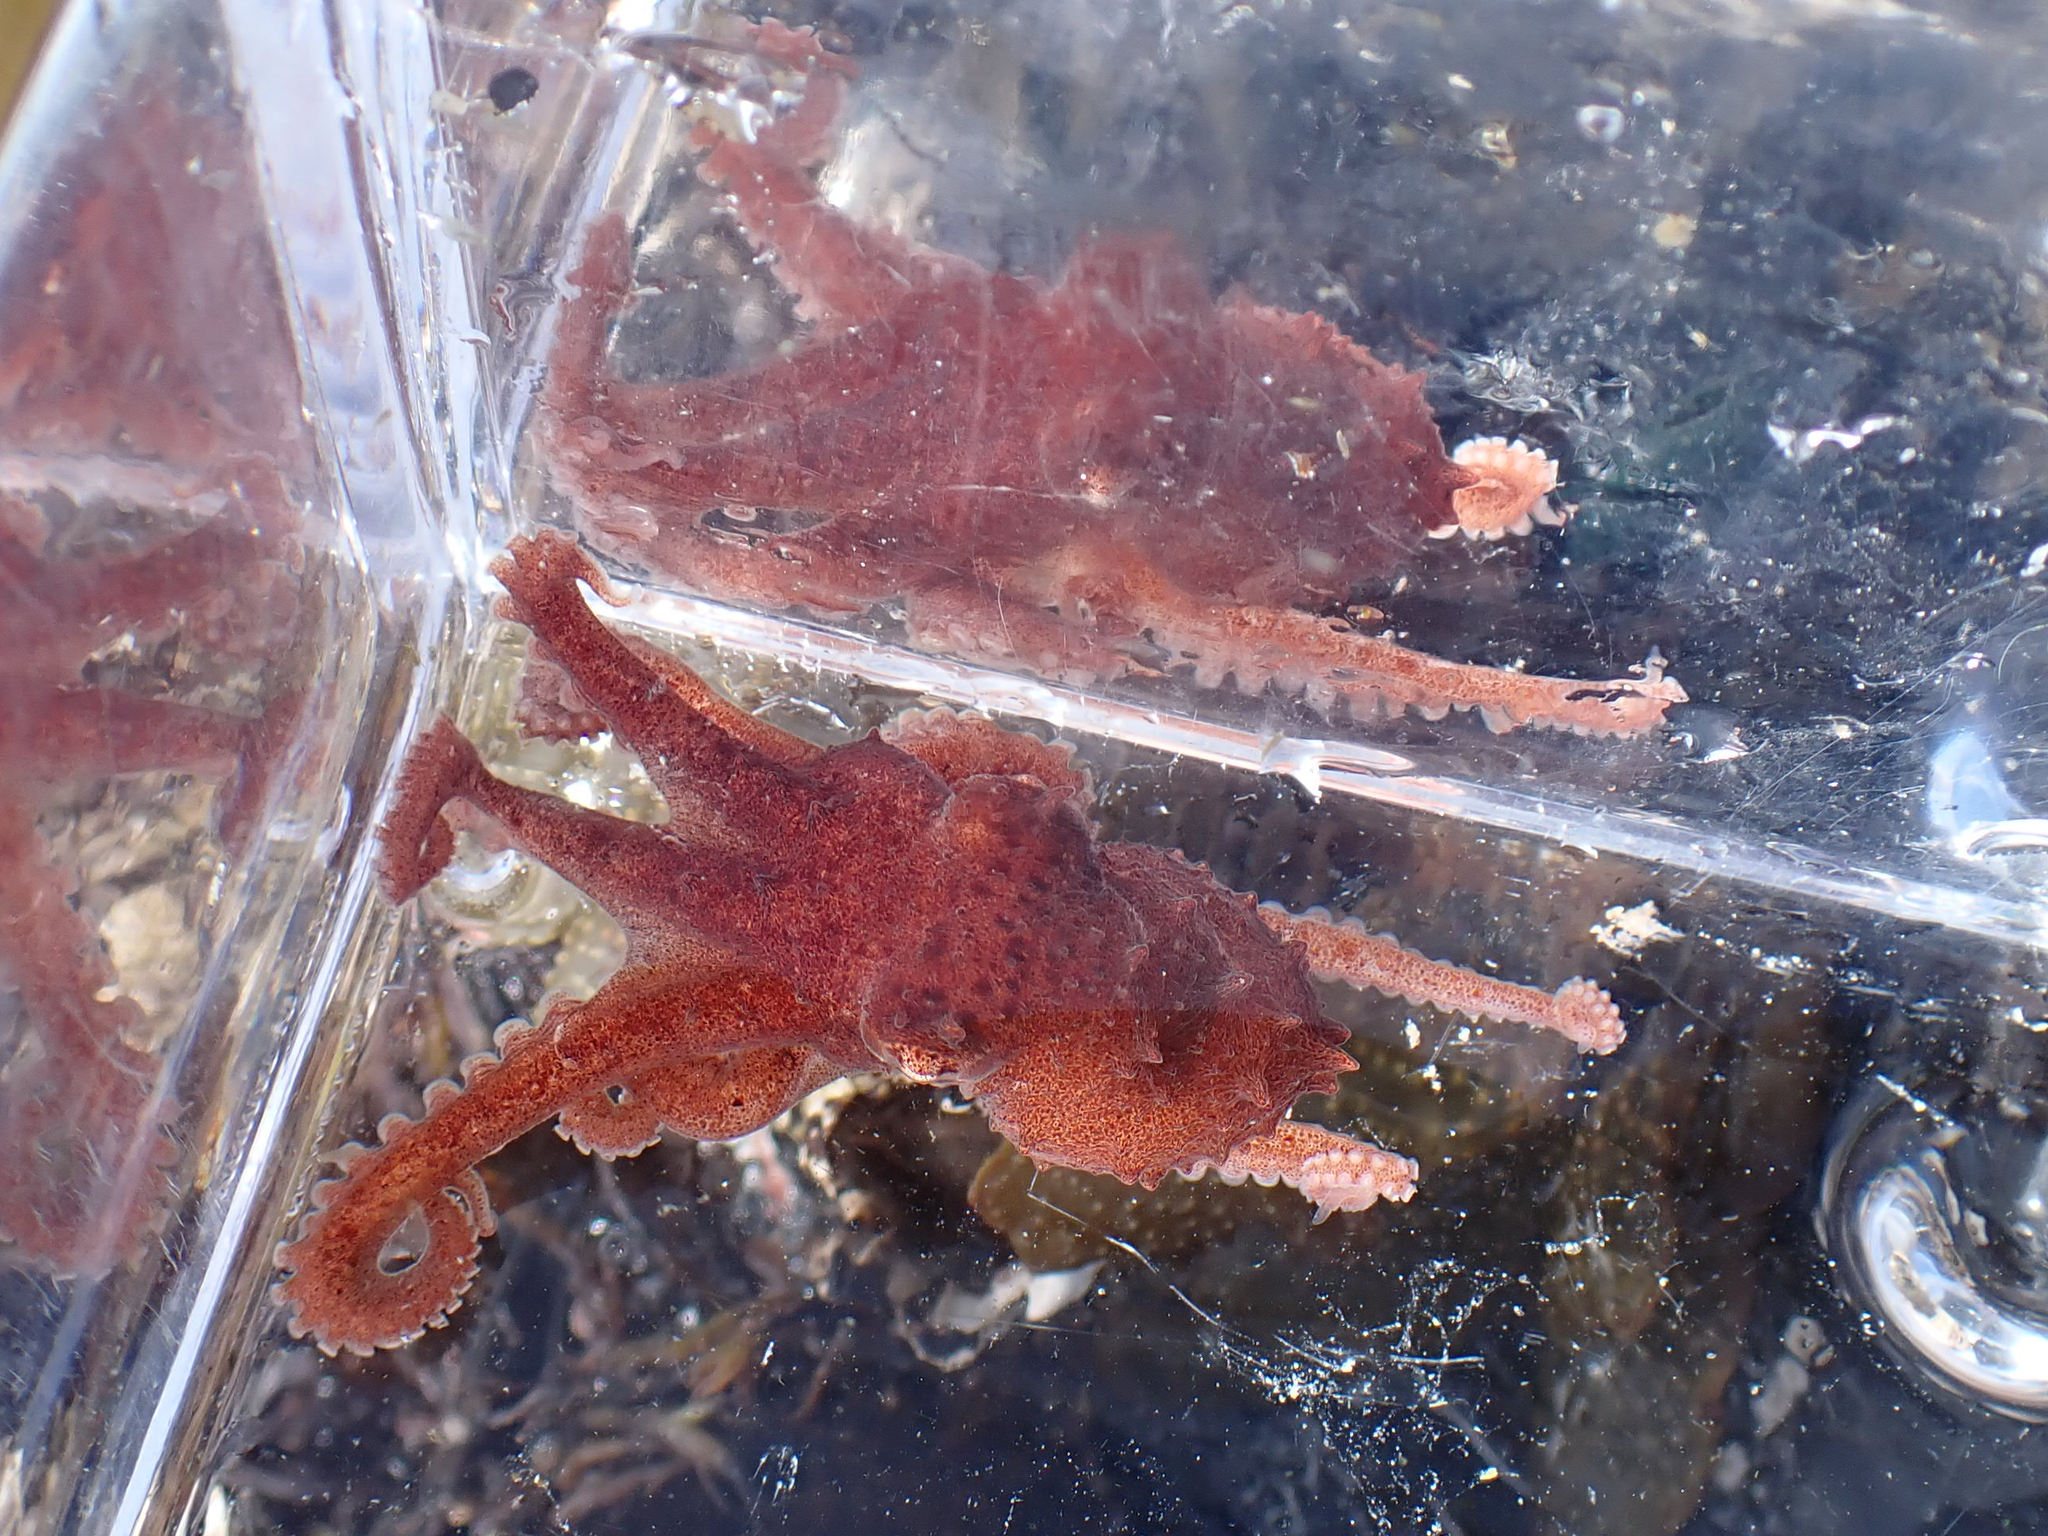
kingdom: Animalia
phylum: Mollusca
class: Cephalopoda
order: Octopoda
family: Enteroctopodidae
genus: Enteroctopus
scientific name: Enteroctopus dofleini
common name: Giant north pacific octopus
